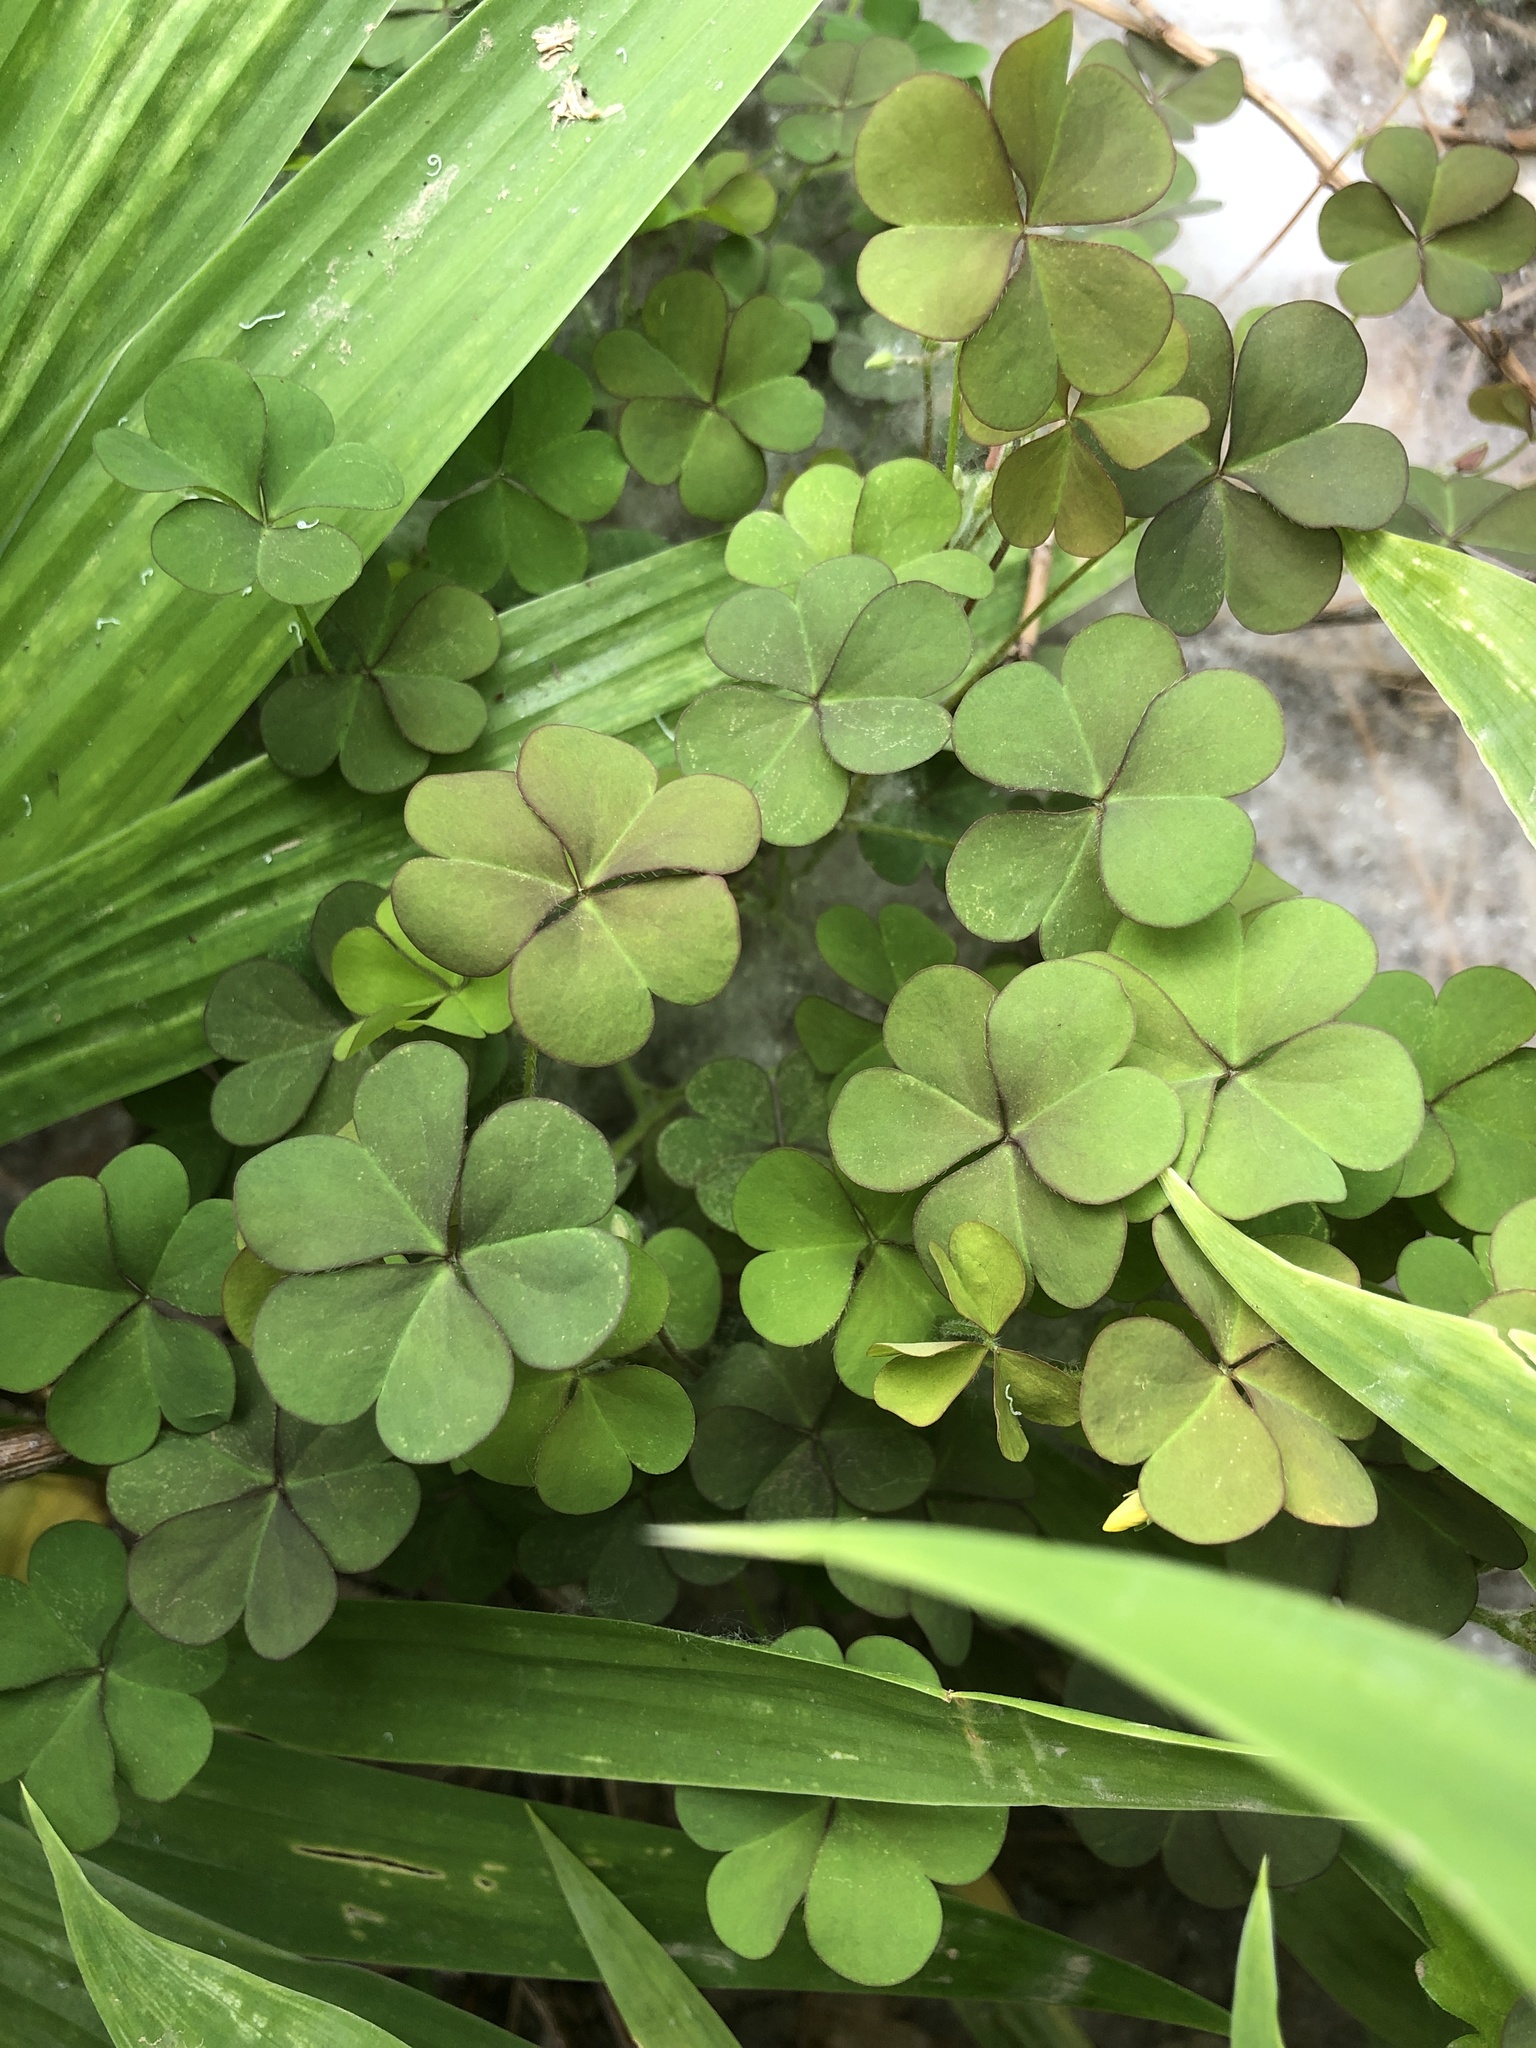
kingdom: Plantae
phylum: Tracheophyta
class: Magnoliopsida
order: Oxalidales
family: Oxalidaceae
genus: Oxalis
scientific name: Oxalis corniculata
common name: Procumbent yellow-sorrel
